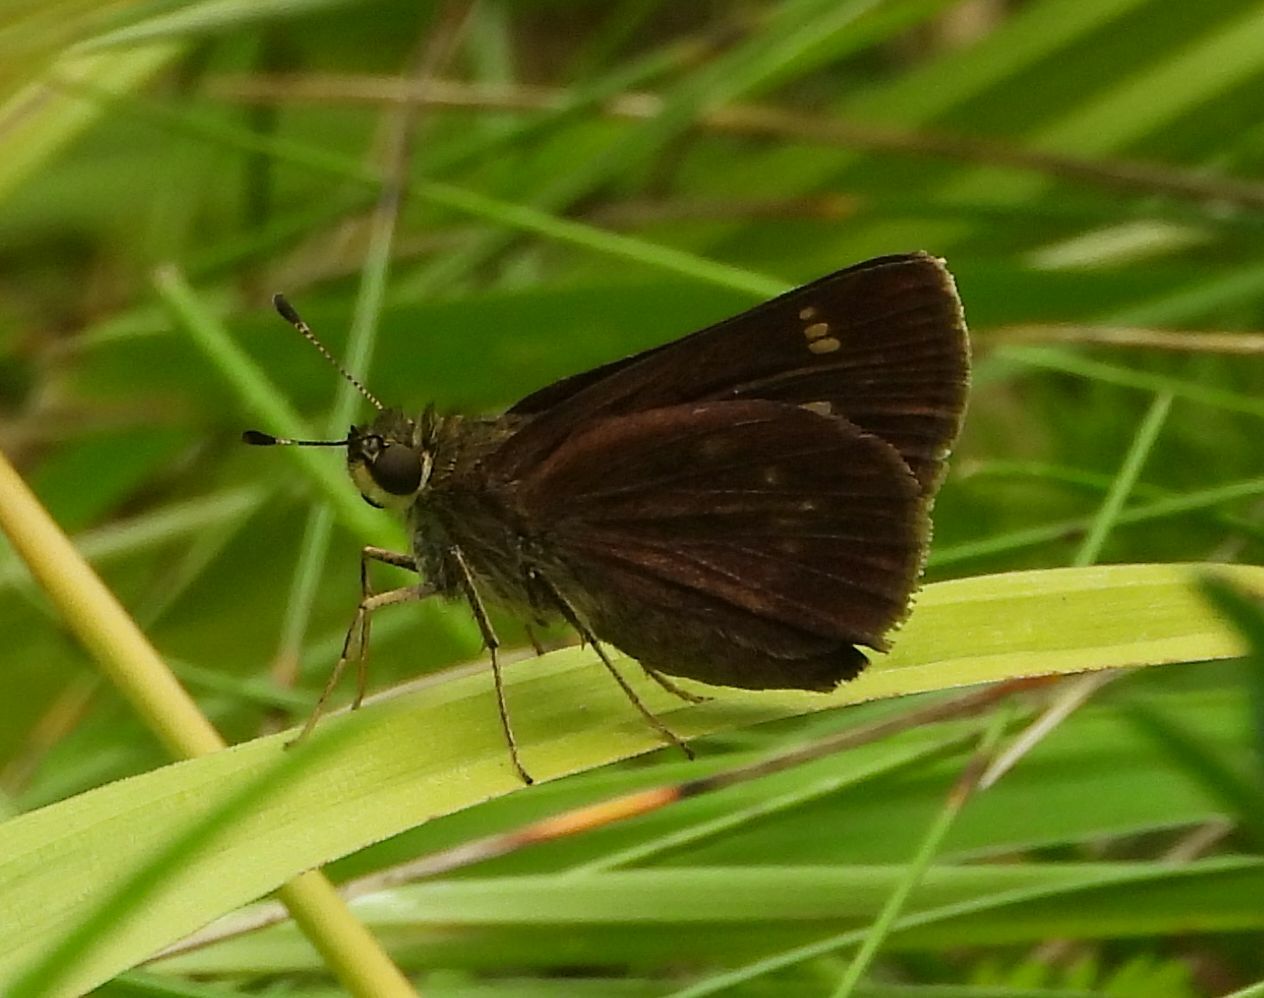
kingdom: Animalia
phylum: Arthropoda
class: Insecta
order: Lepidoptera
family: Hesperiidae
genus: Vernia
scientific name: Vernia verna
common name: Little glassywing
